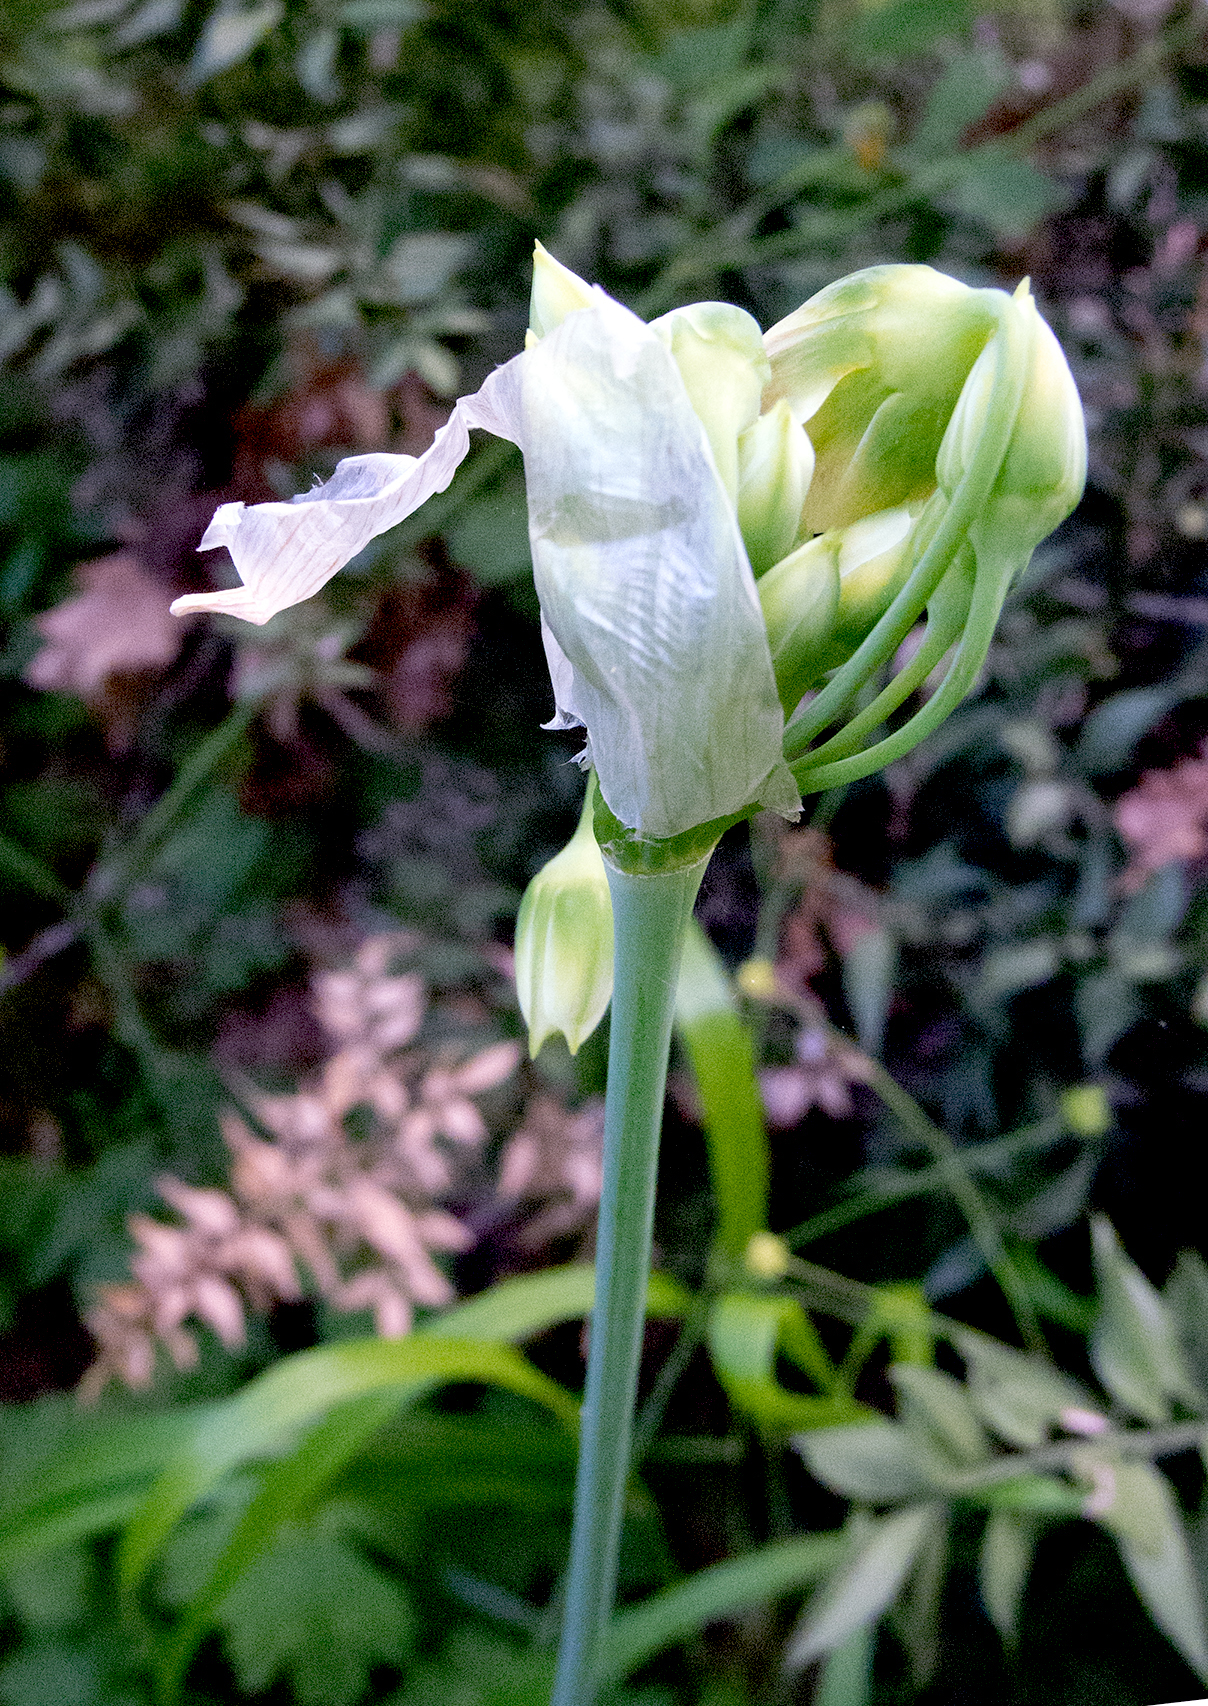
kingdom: Plantae
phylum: Tracheophyta
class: Liliopsida
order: Asparagales
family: Amaryllidaceae
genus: Allium
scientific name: Allium siculum
